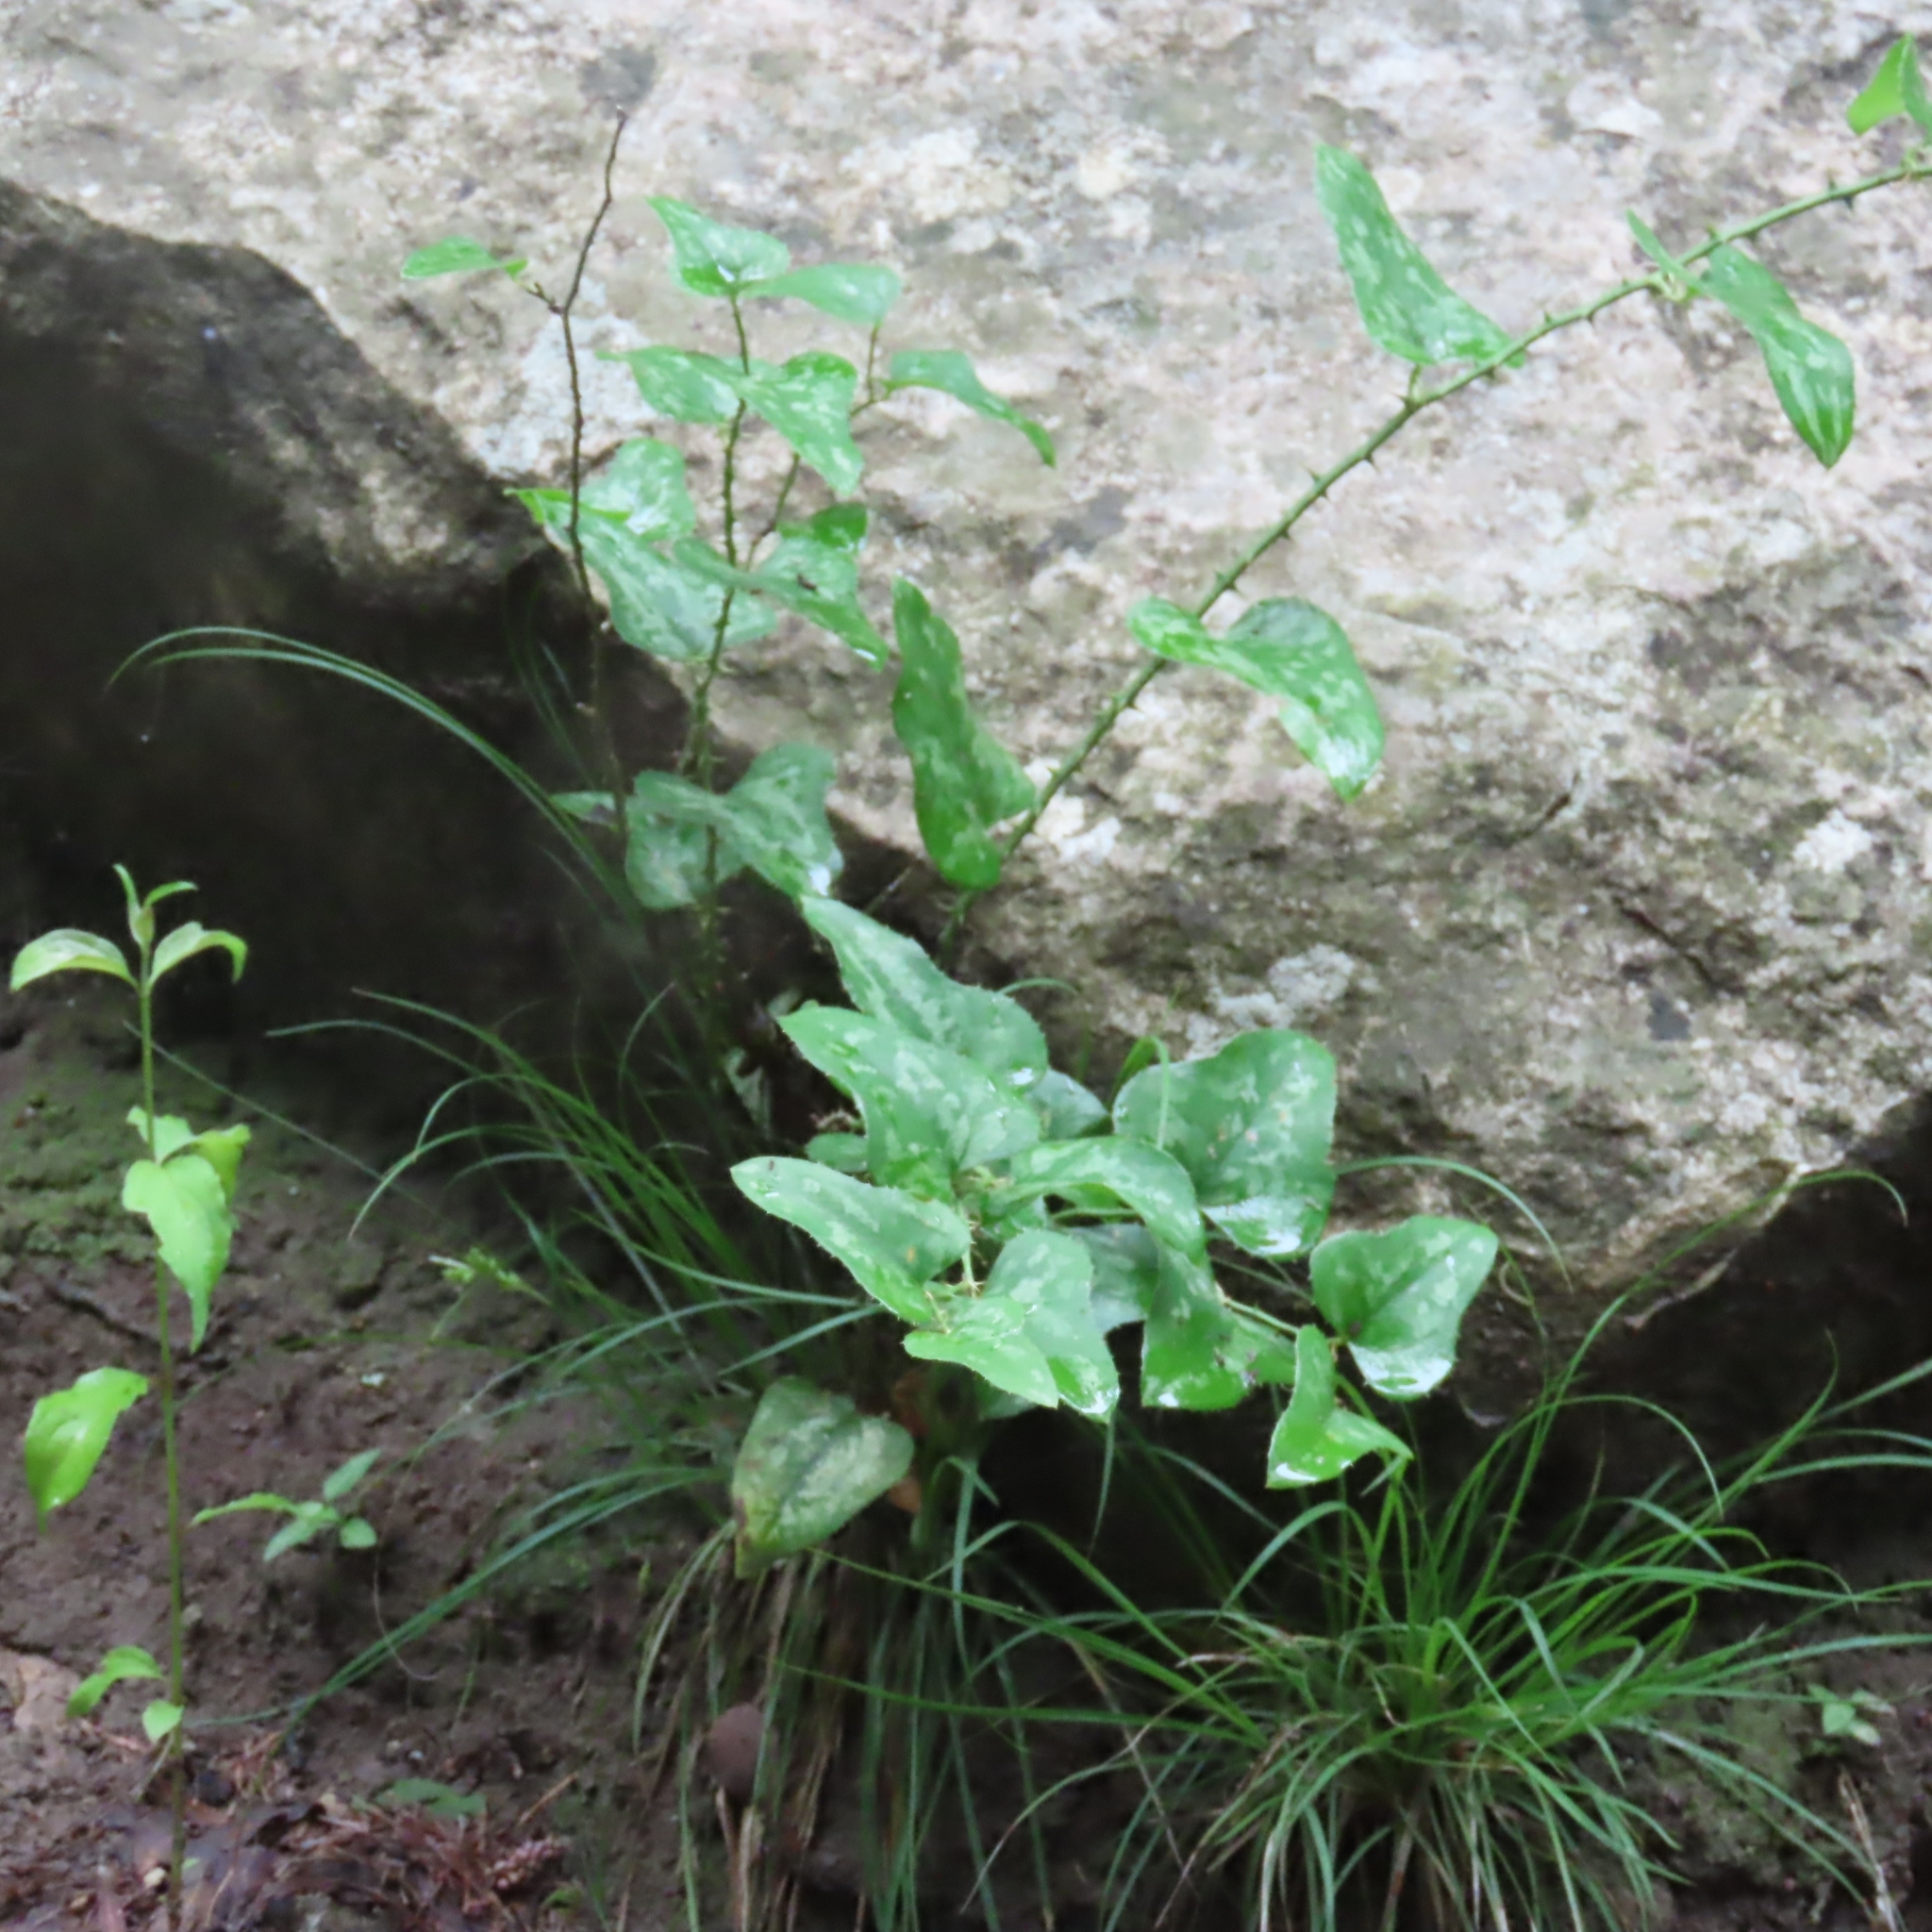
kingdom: Plantae
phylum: Tracheophyta
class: Liliopsida
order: Liliales
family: Smilacaceae
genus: Smilax
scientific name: Smilax bona-nox
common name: Catbrier
